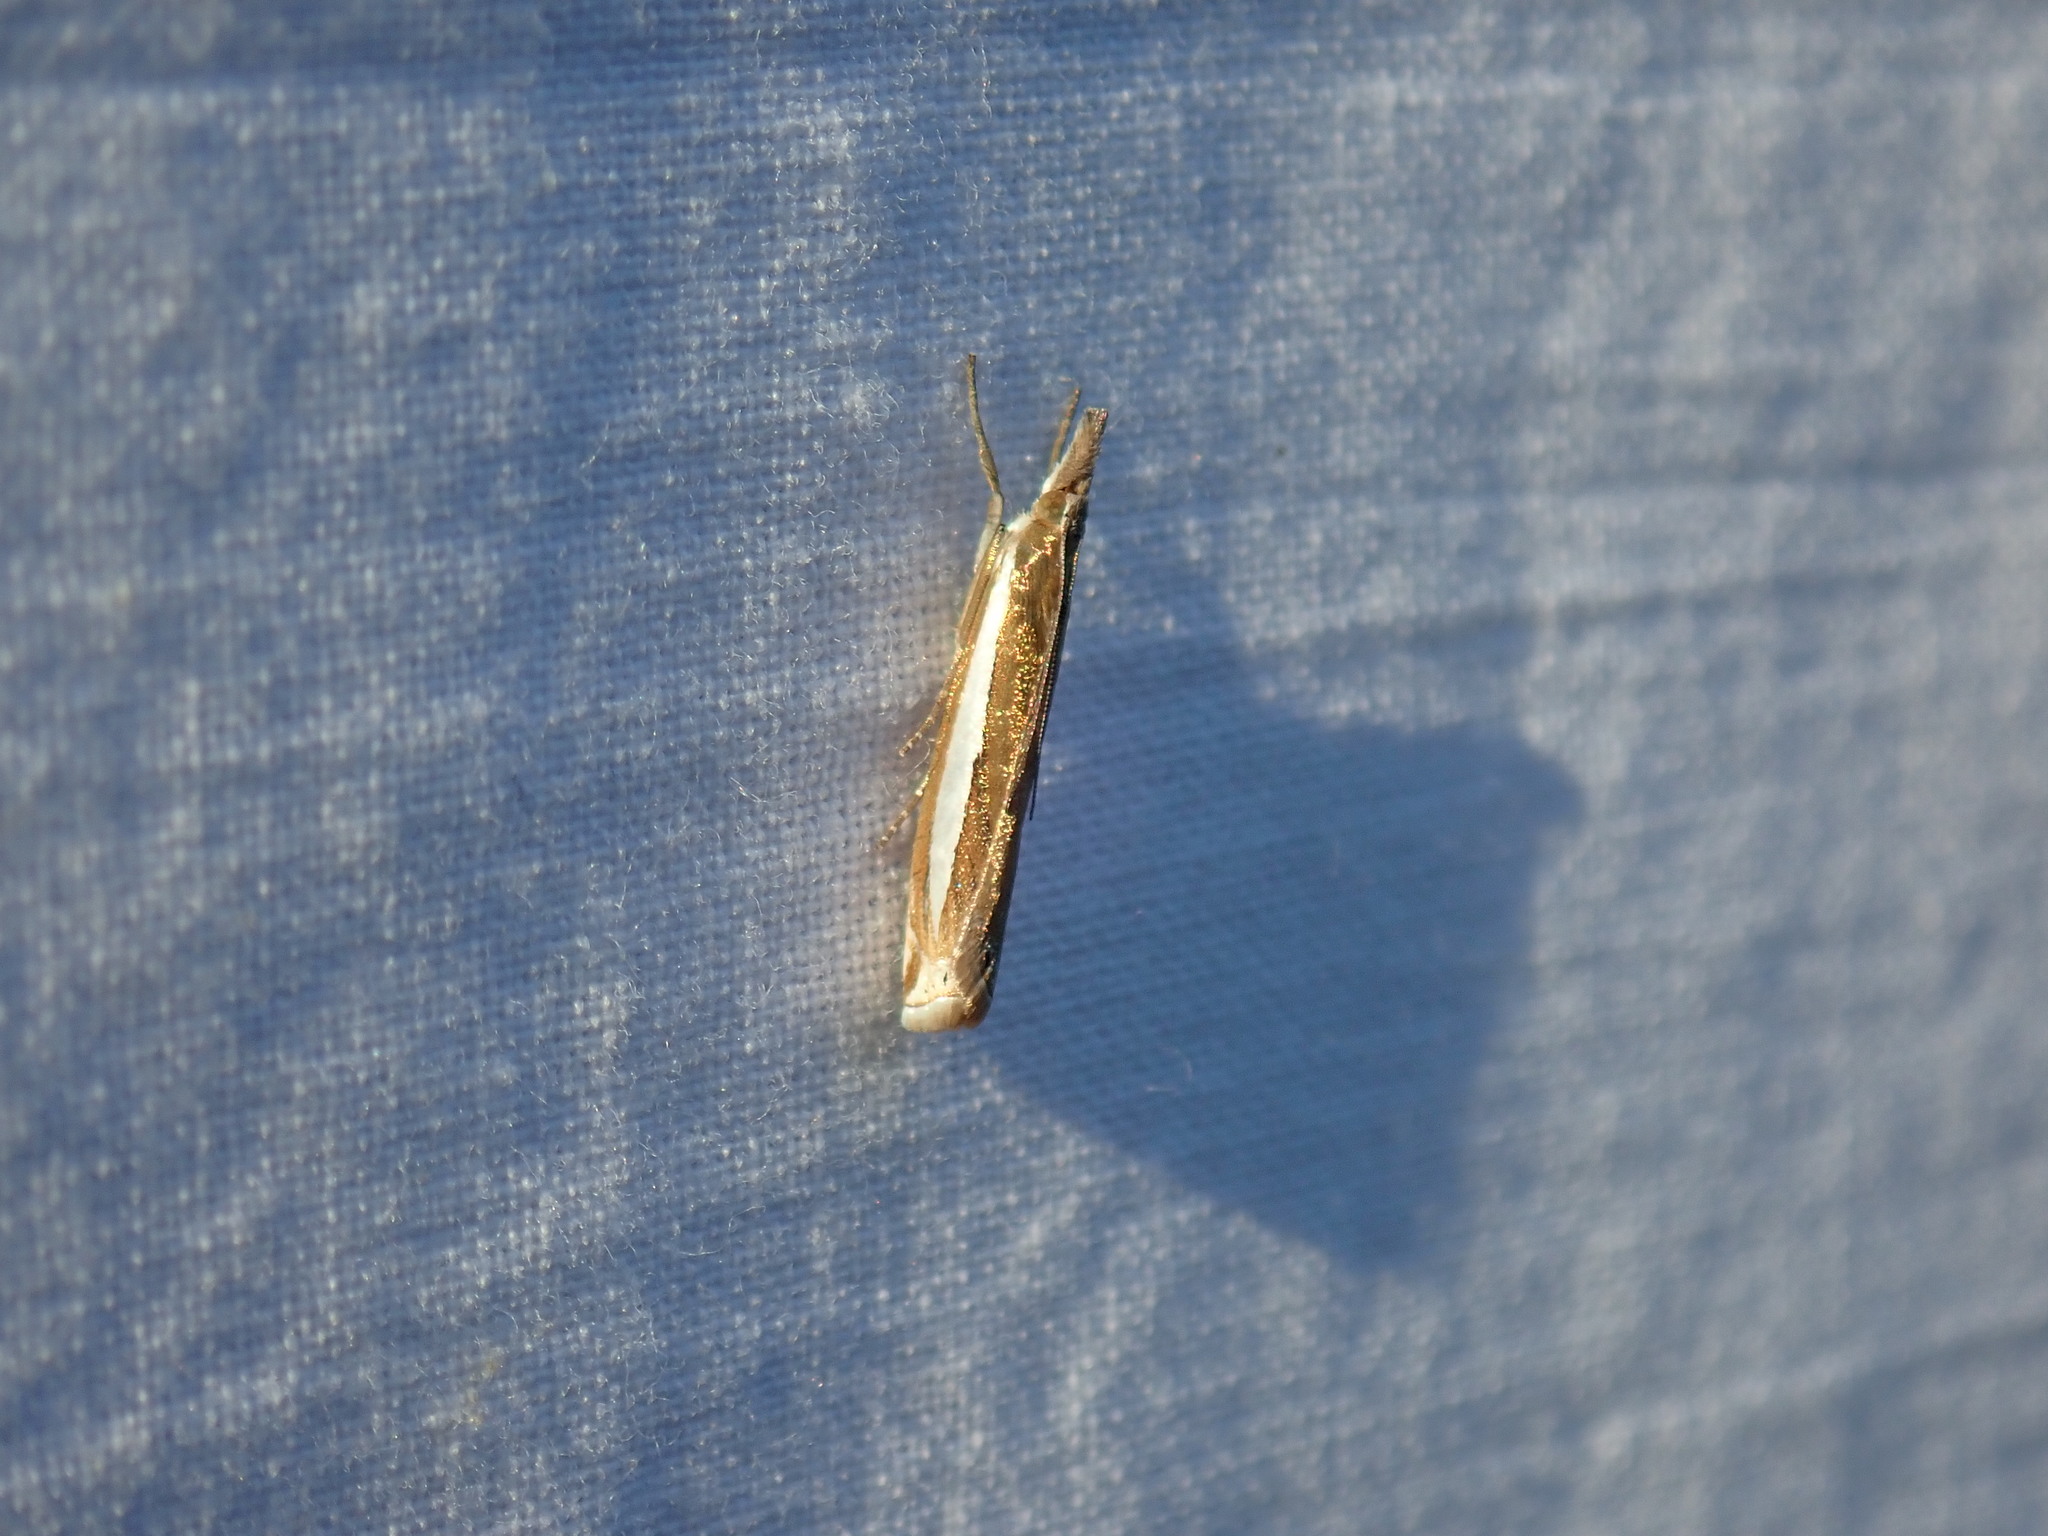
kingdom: Animalia
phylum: Arthropoda
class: Insecta
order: Lepidoptera
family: Crambidae
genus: Crambus
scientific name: Crambus praefectellus
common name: Common grass-veneer
